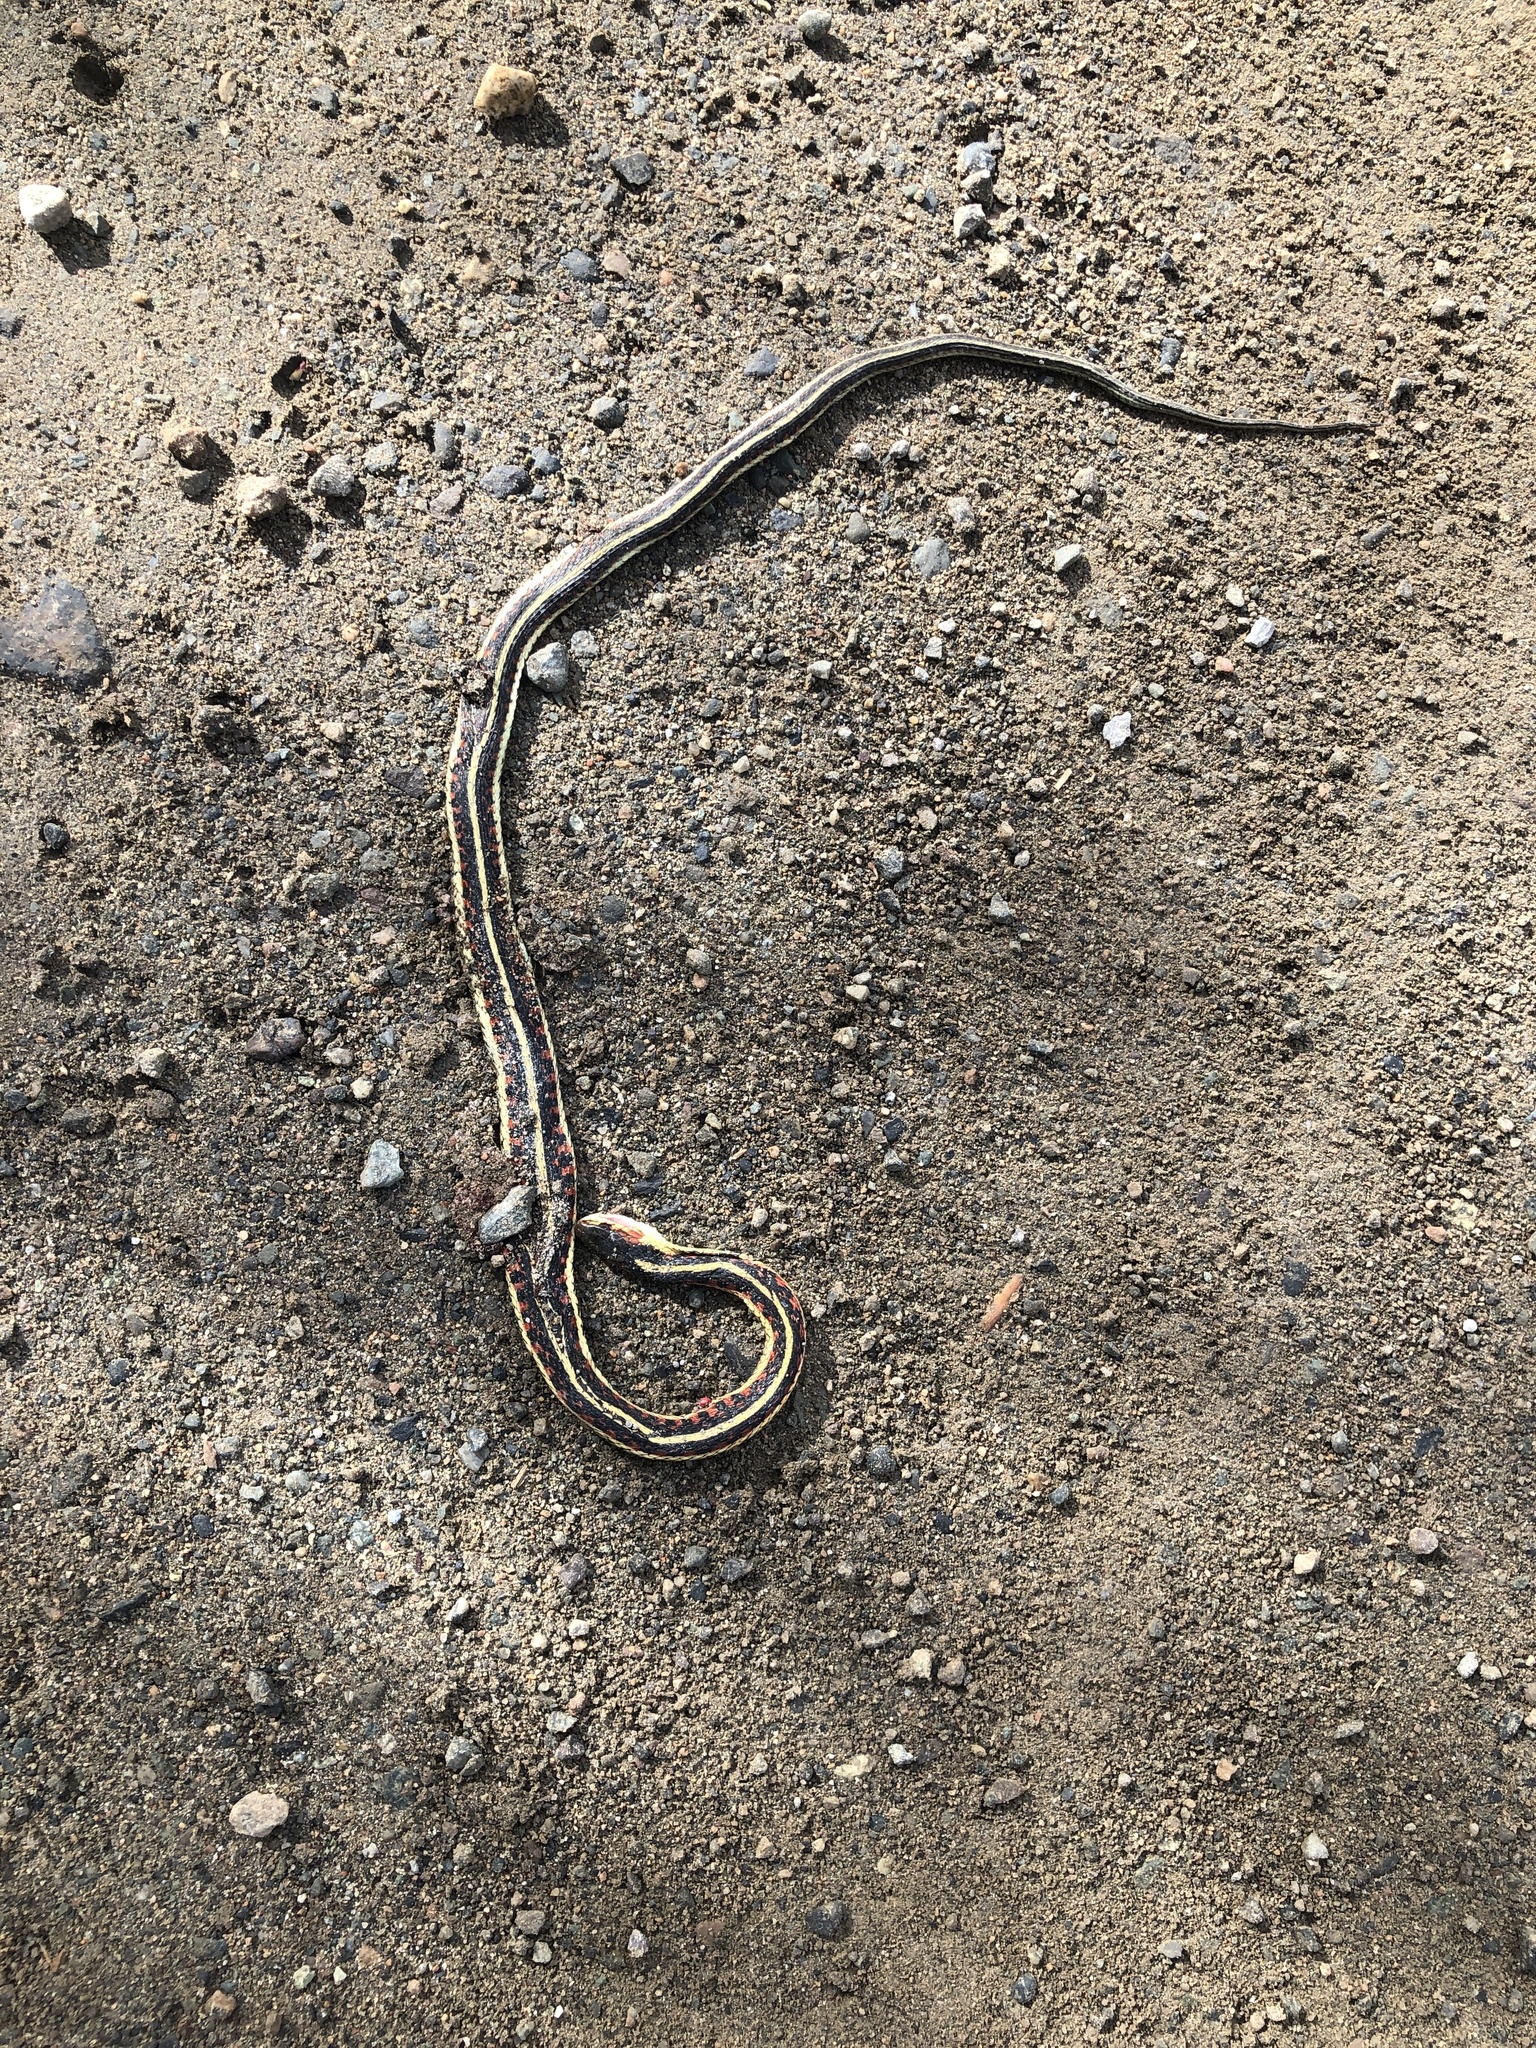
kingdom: Animalia
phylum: Chordata
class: Squamata
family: Colubridae
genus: Thamnophis
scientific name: Thamnophis sirtalis
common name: Common garter snake
